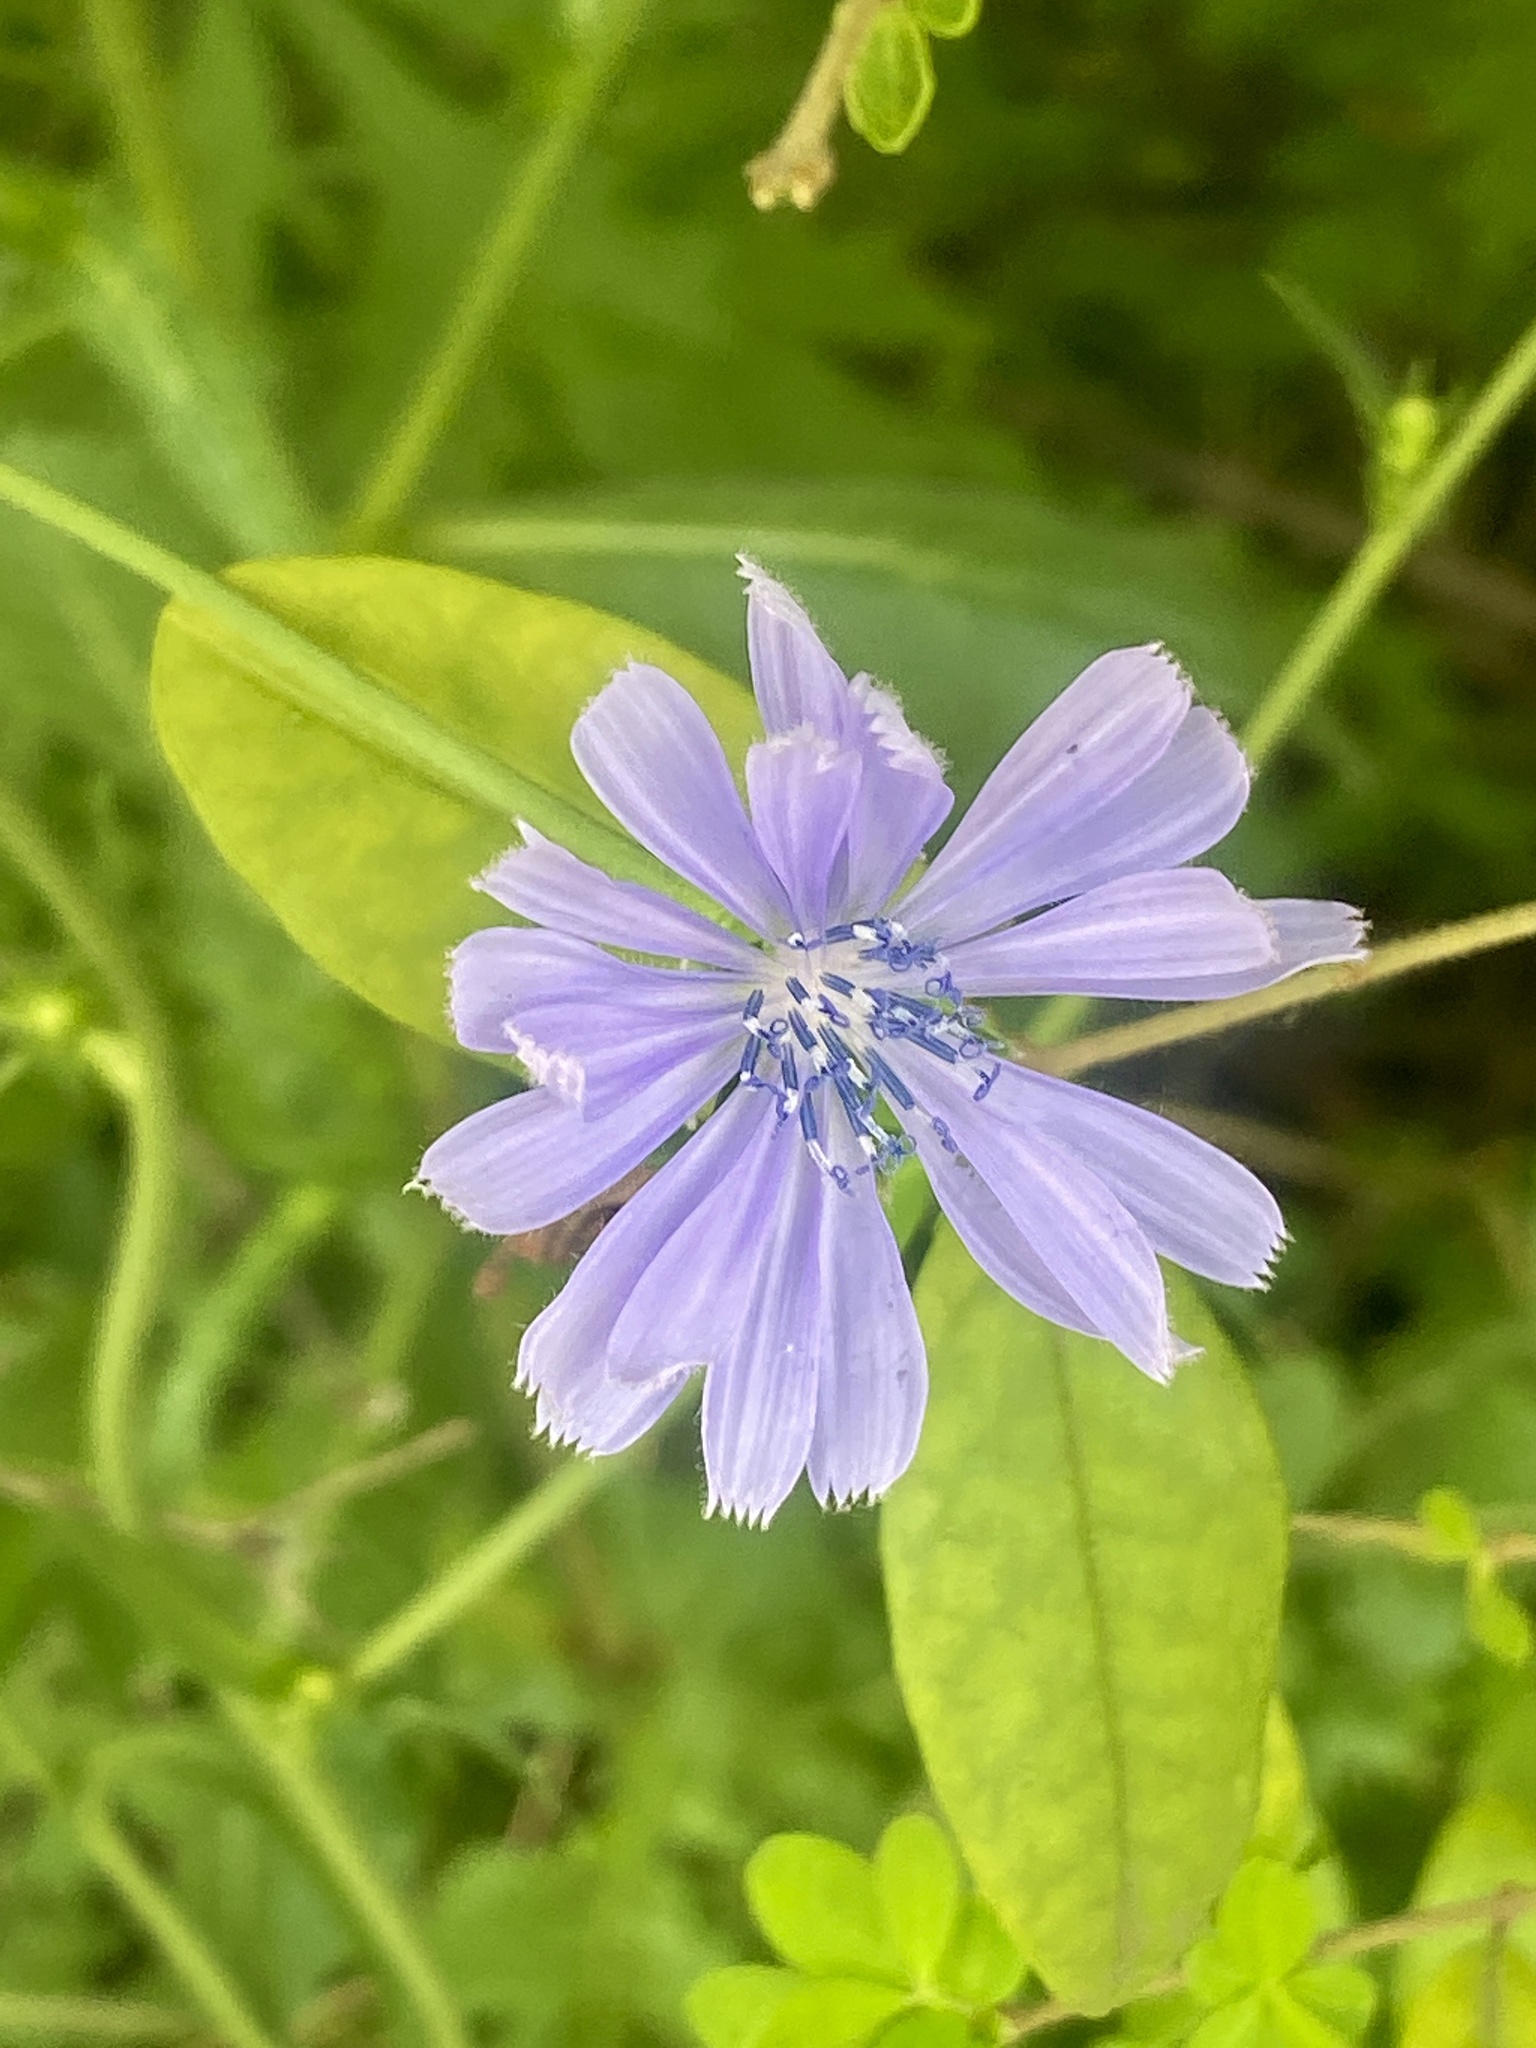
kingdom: Plantae
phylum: Tracheophyta
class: Magnoliopsida
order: Asterales
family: Asteraceae
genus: Cichorium
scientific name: Cichorium intybus
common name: Chicory
